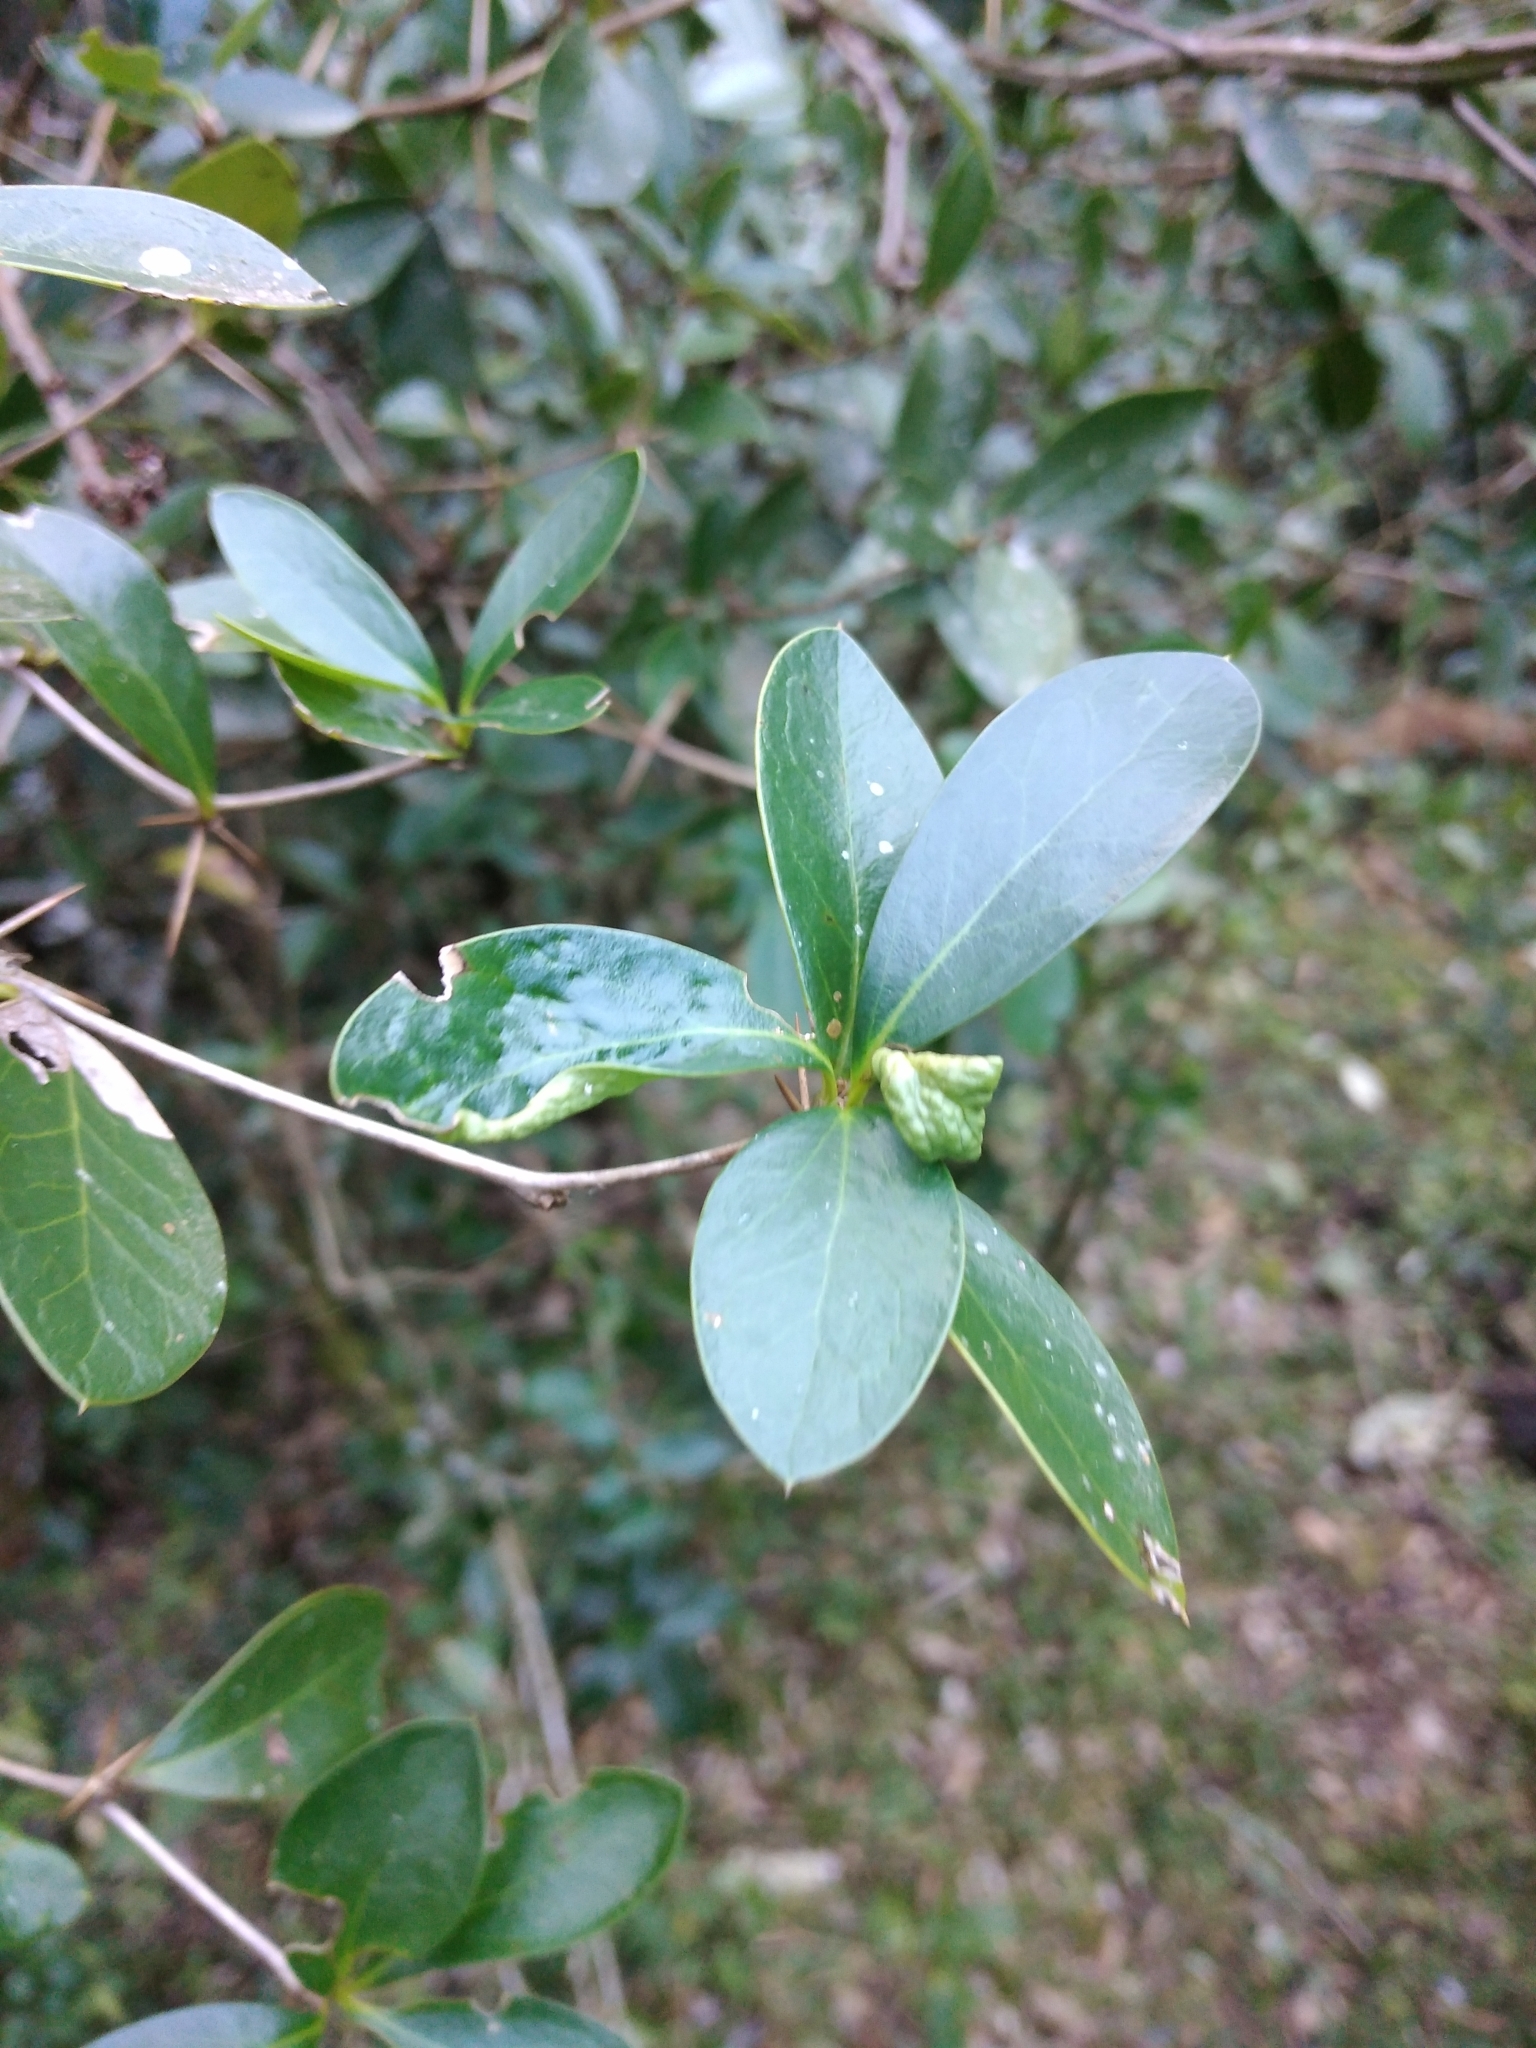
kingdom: Plantae
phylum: Tracheophyta
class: Magnoliopsida
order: Ranunculales
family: Berberidaceae
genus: Berberis
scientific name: Berberis laurina
